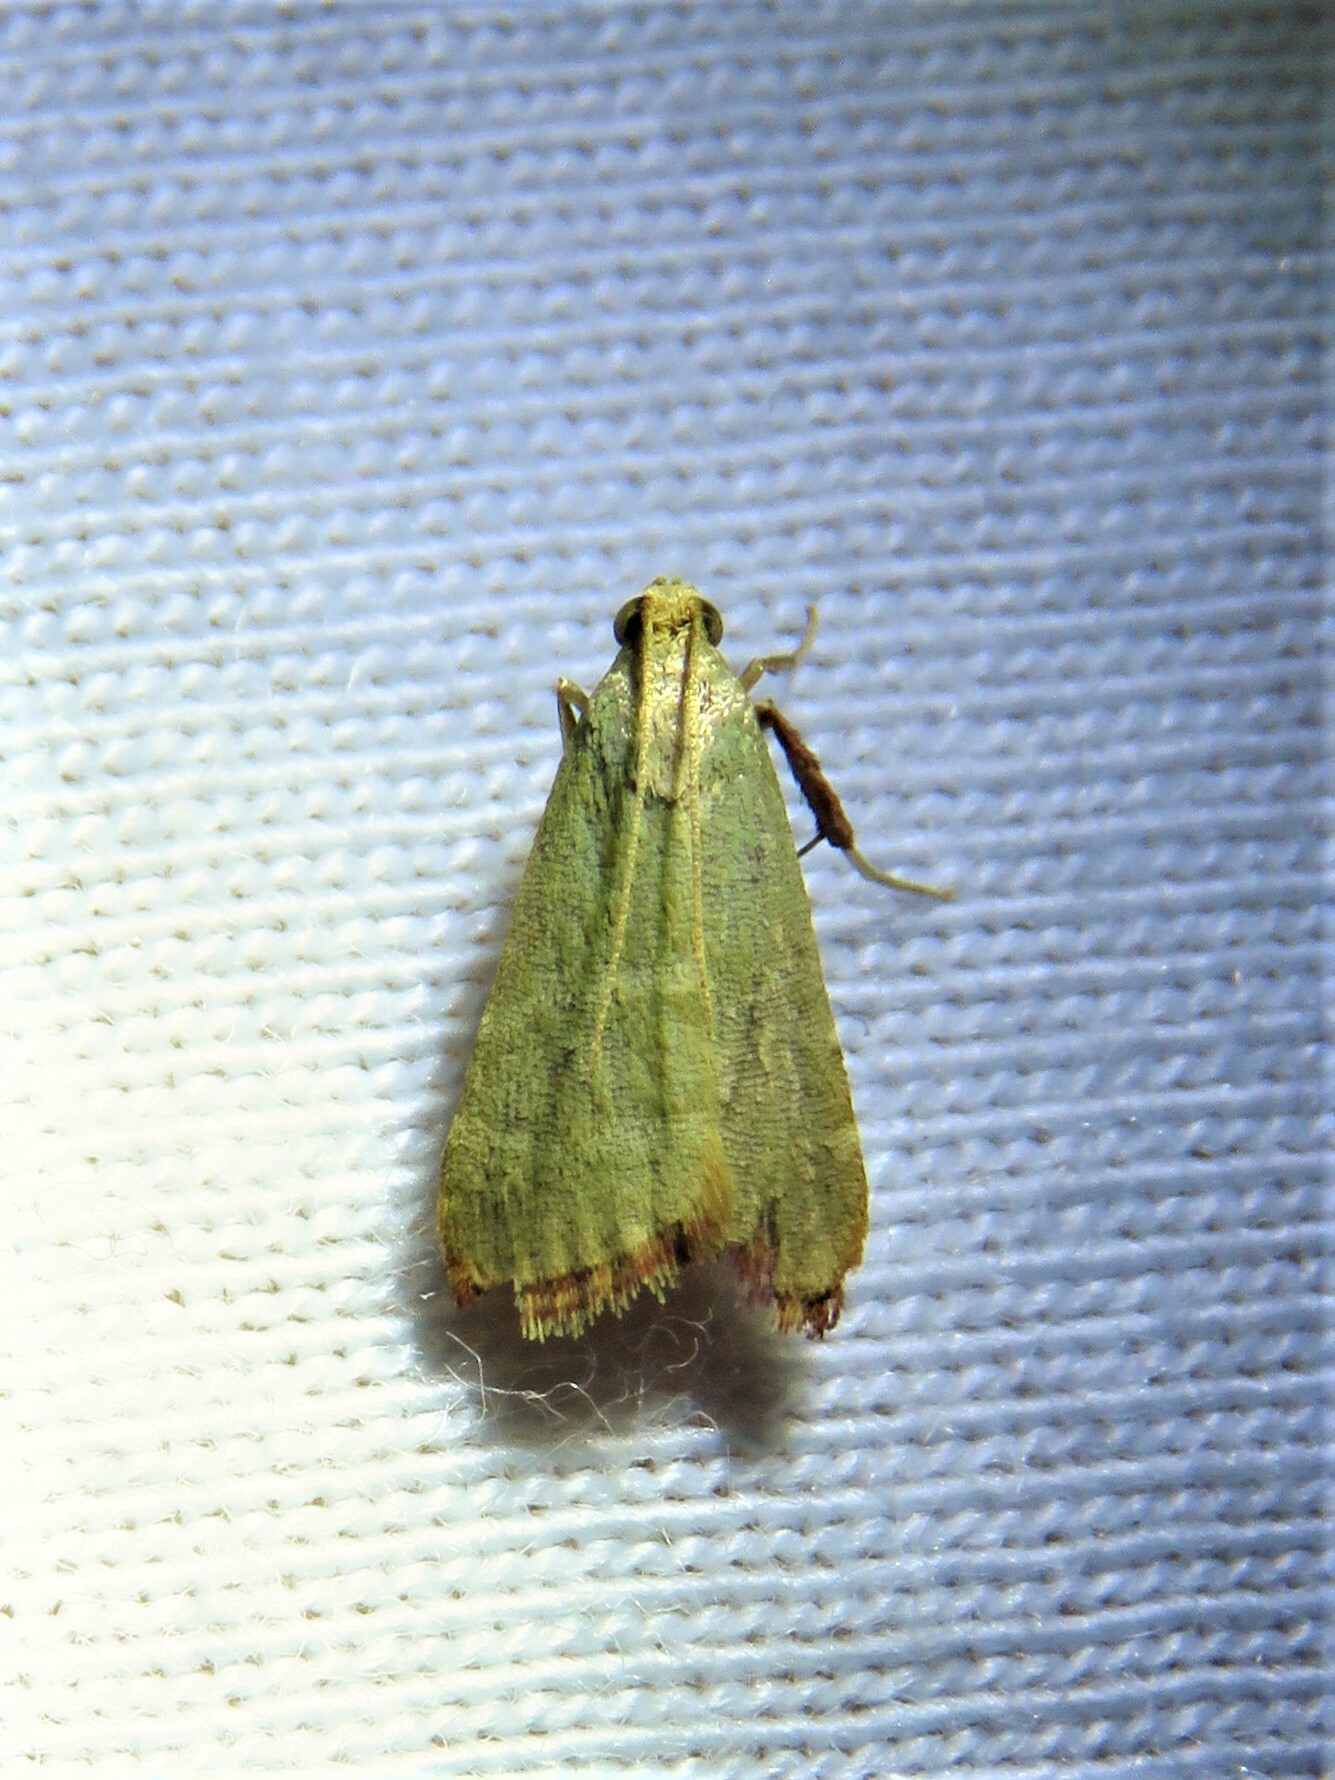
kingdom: Animalia
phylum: Arthropoda
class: Insecta
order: Lepidoptera
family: Pyralidae
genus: Arta
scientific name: Arta olivalis
